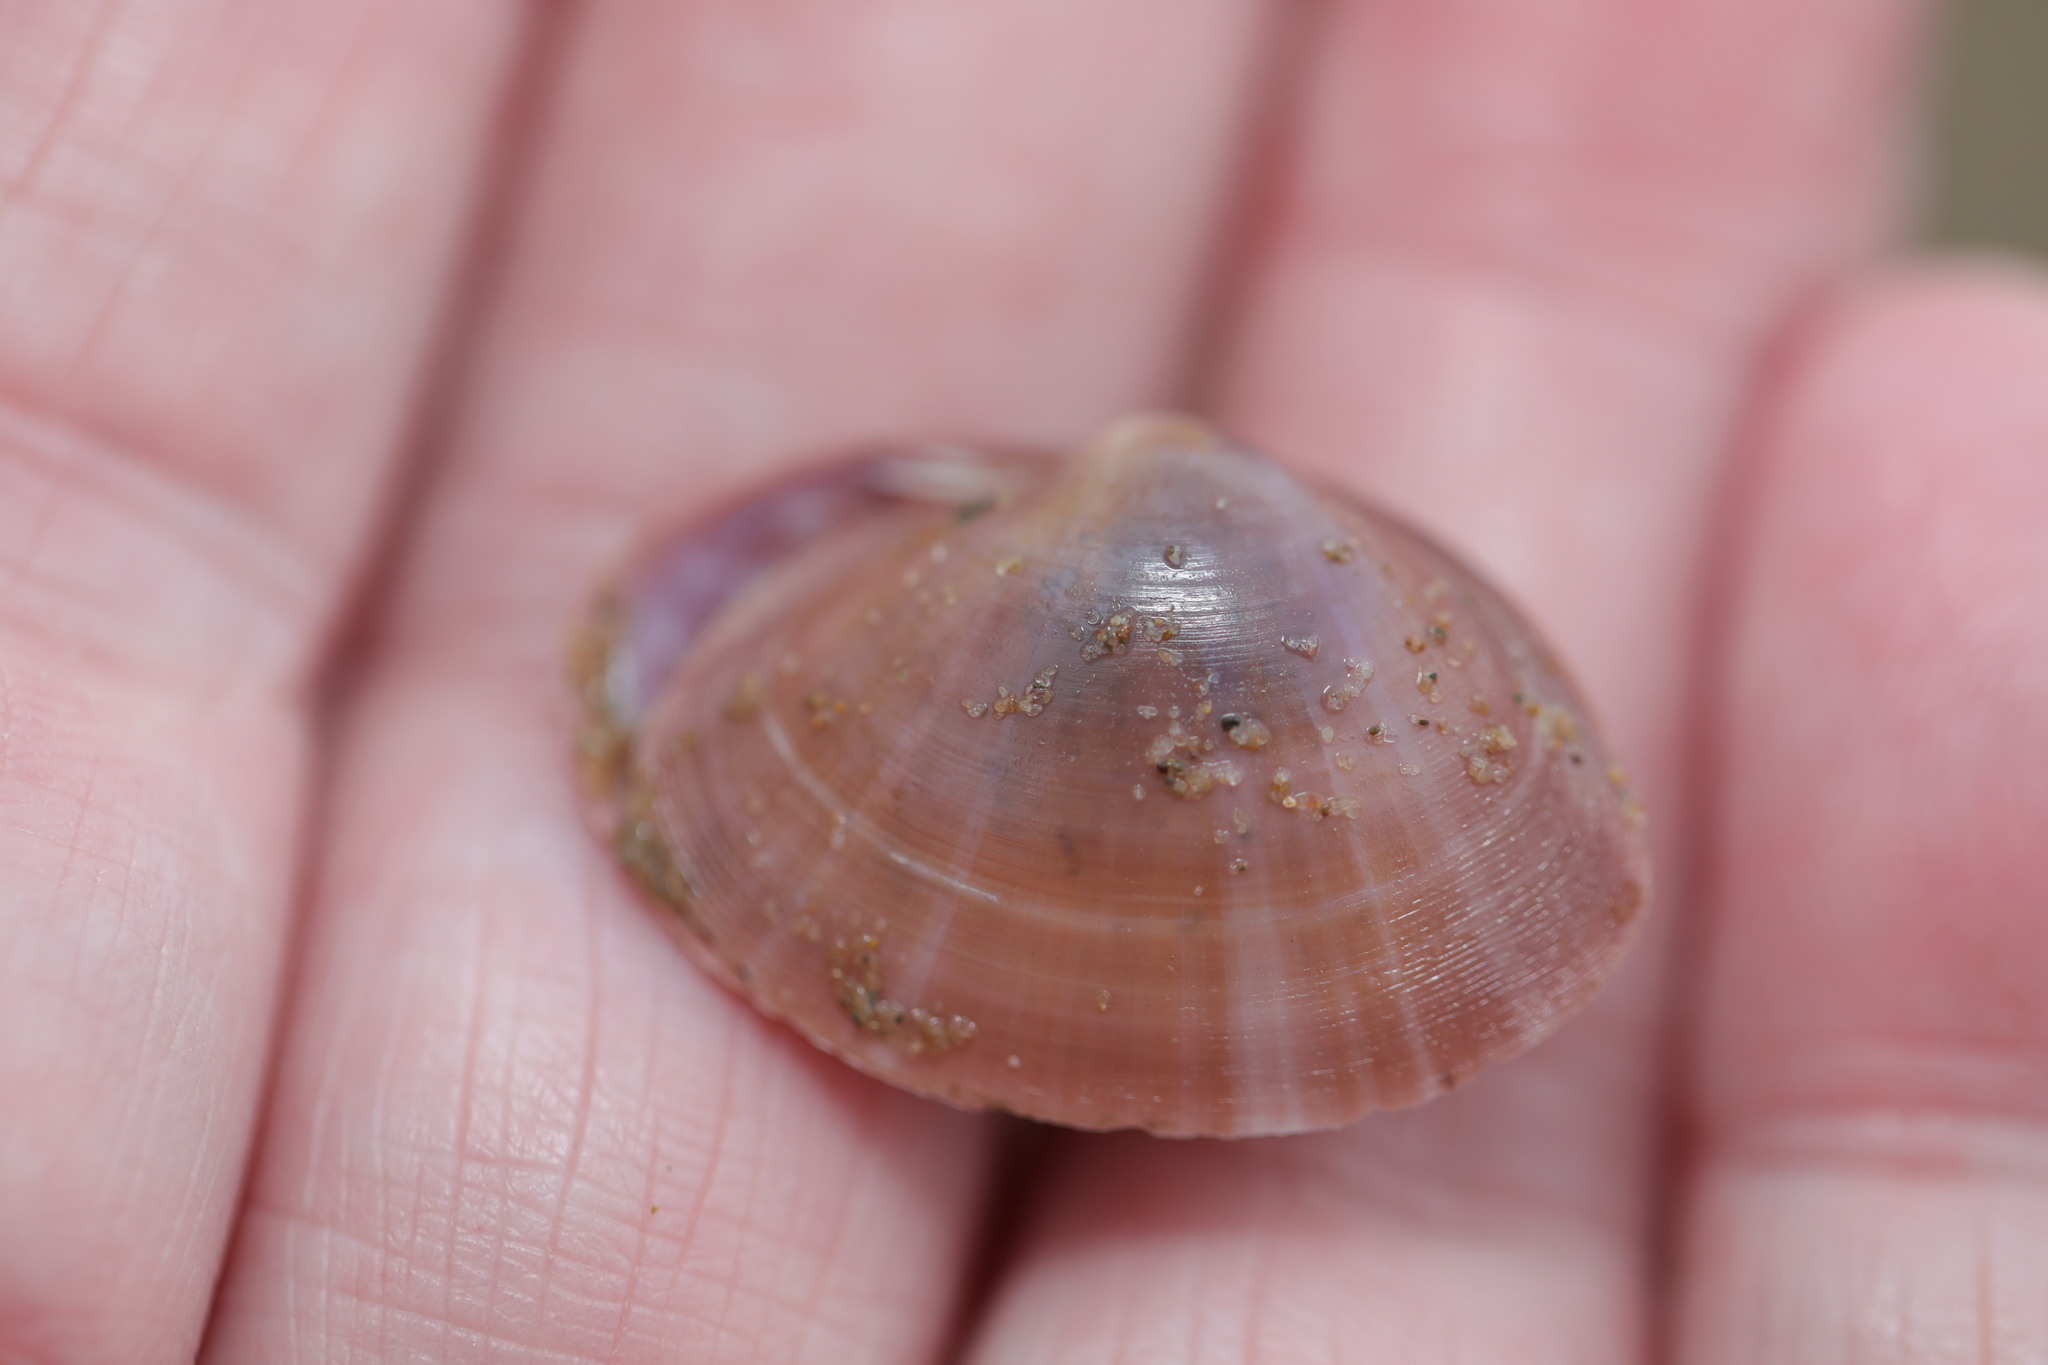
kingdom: Animalia
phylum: Mollusca
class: Bivalvia
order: Venerida
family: Mactridae
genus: Mactra
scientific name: Mactra stultorum
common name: Rayed trough shell
